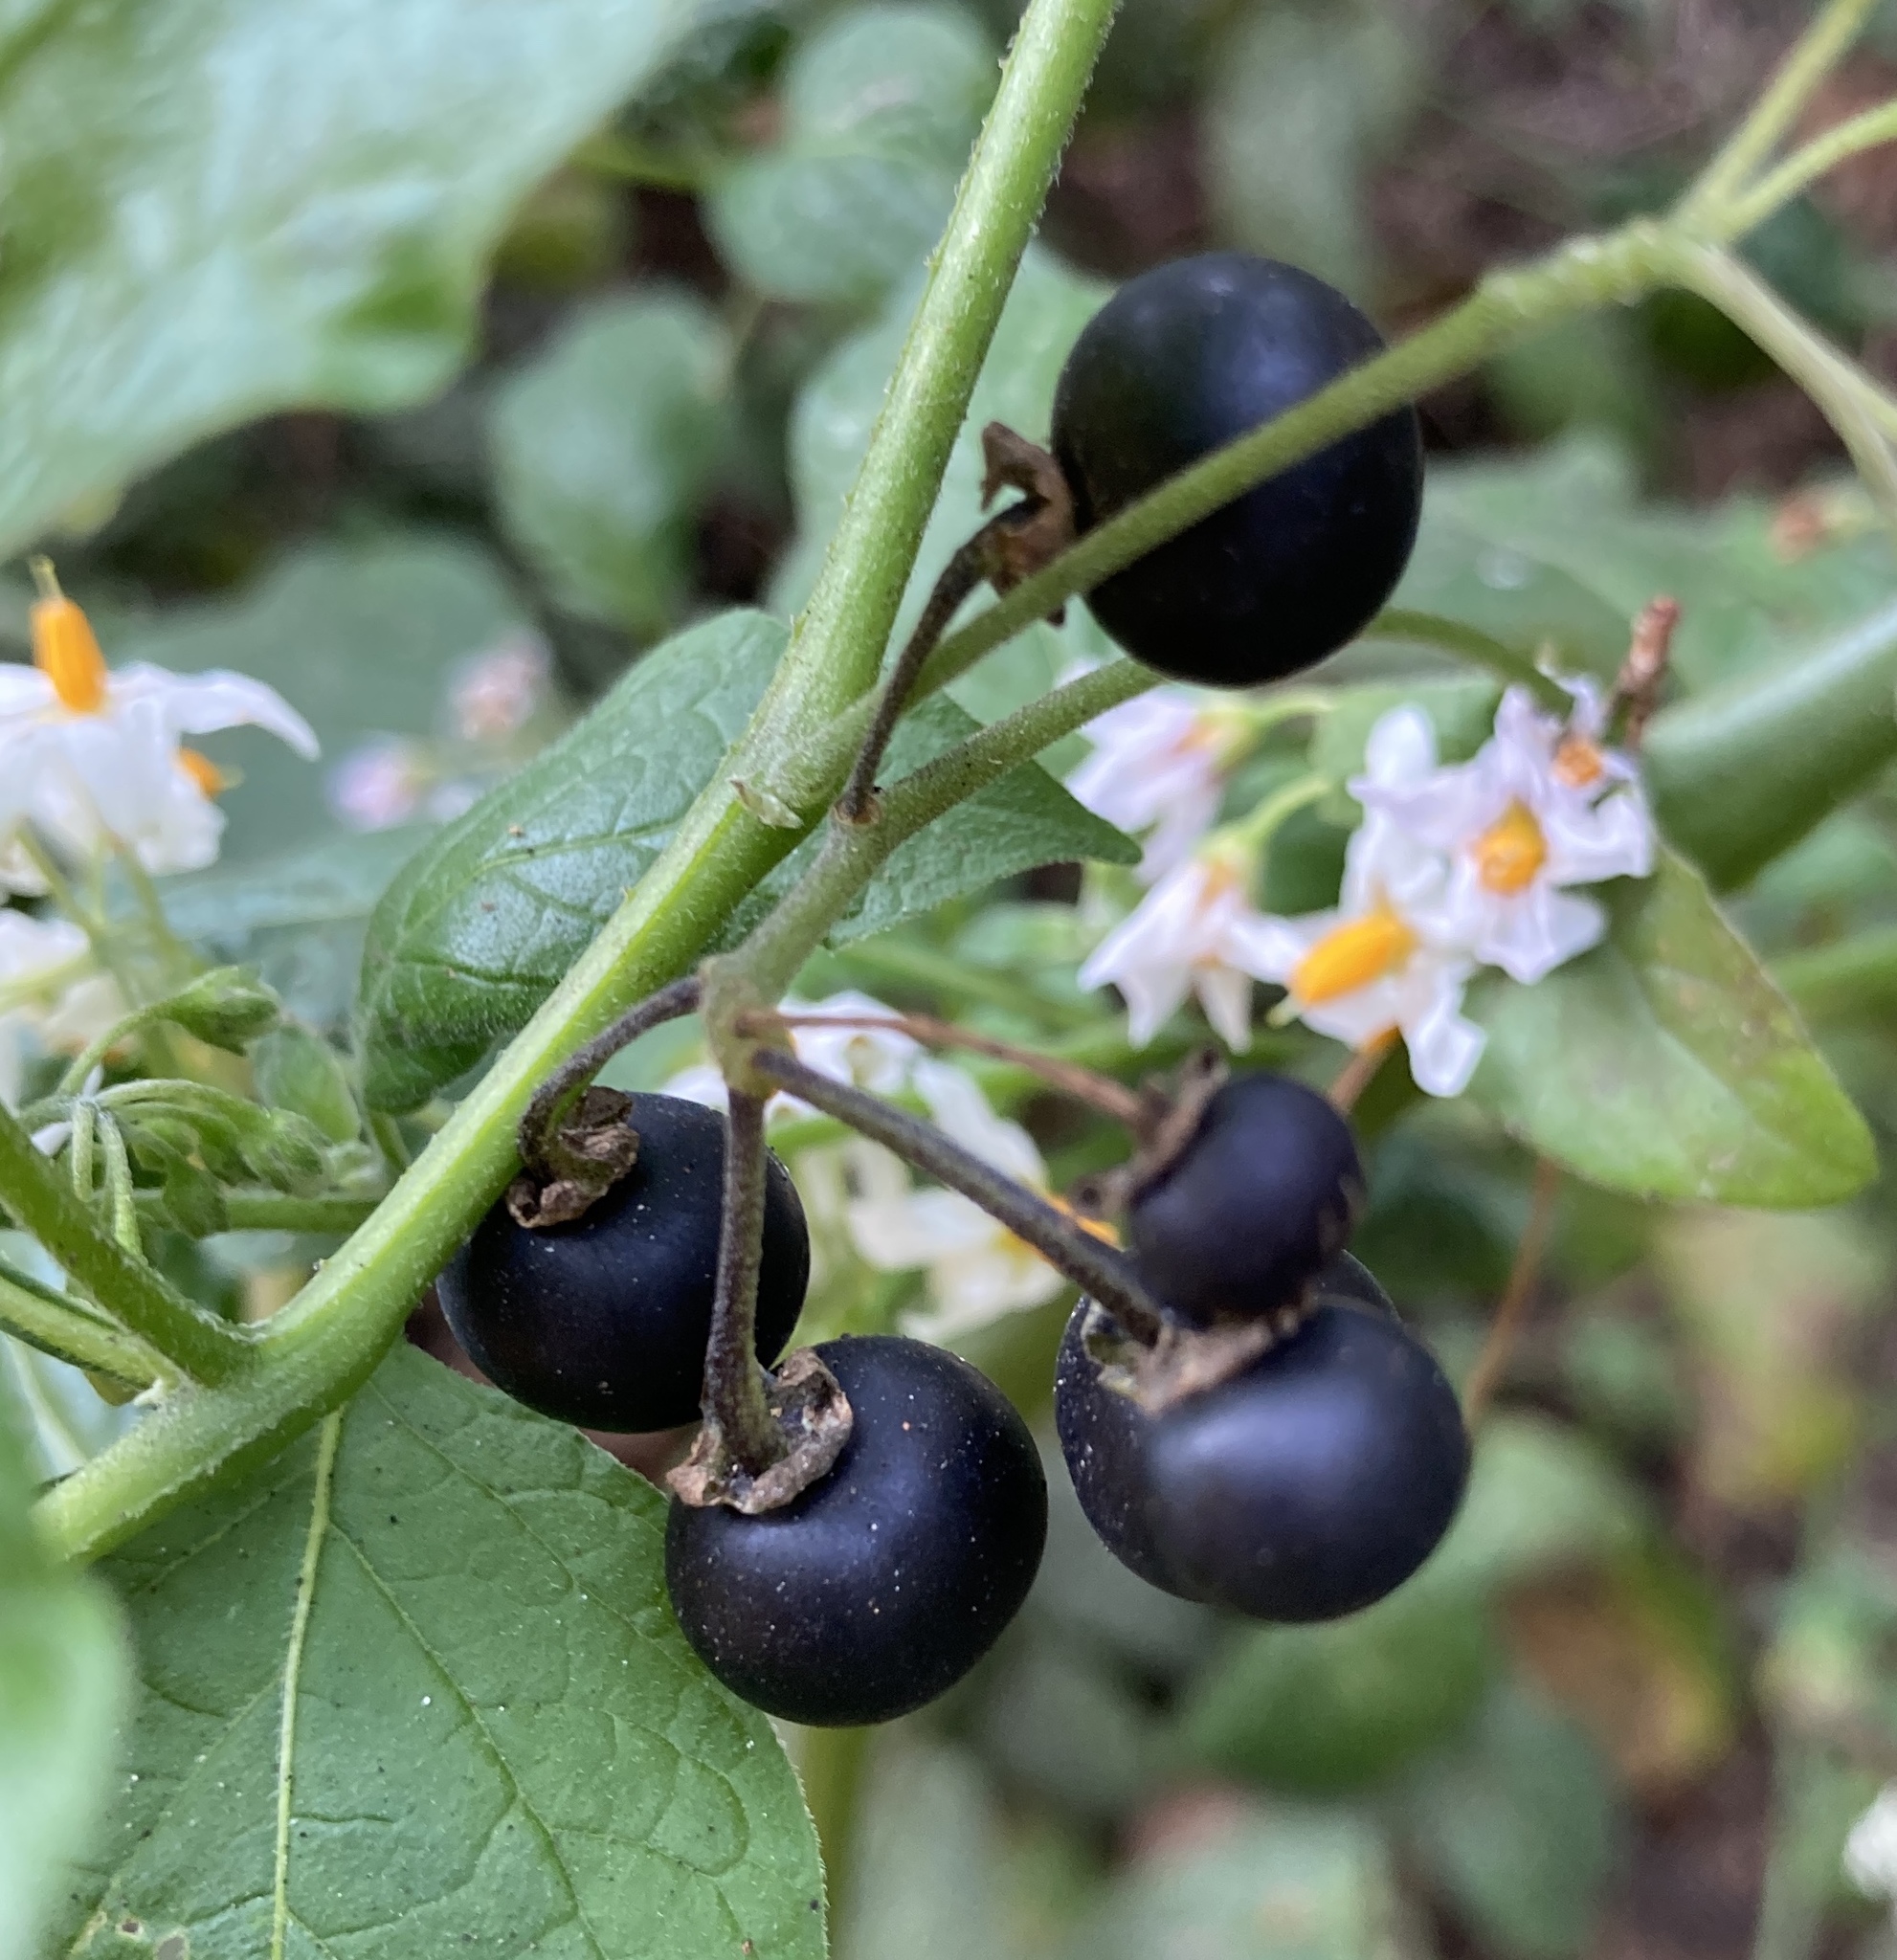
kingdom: Plantae
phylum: Tracheophyta
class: Magnoliopsida
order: Solanales
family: Solanaceae
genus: Solanum
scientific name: Solanum douglasii
